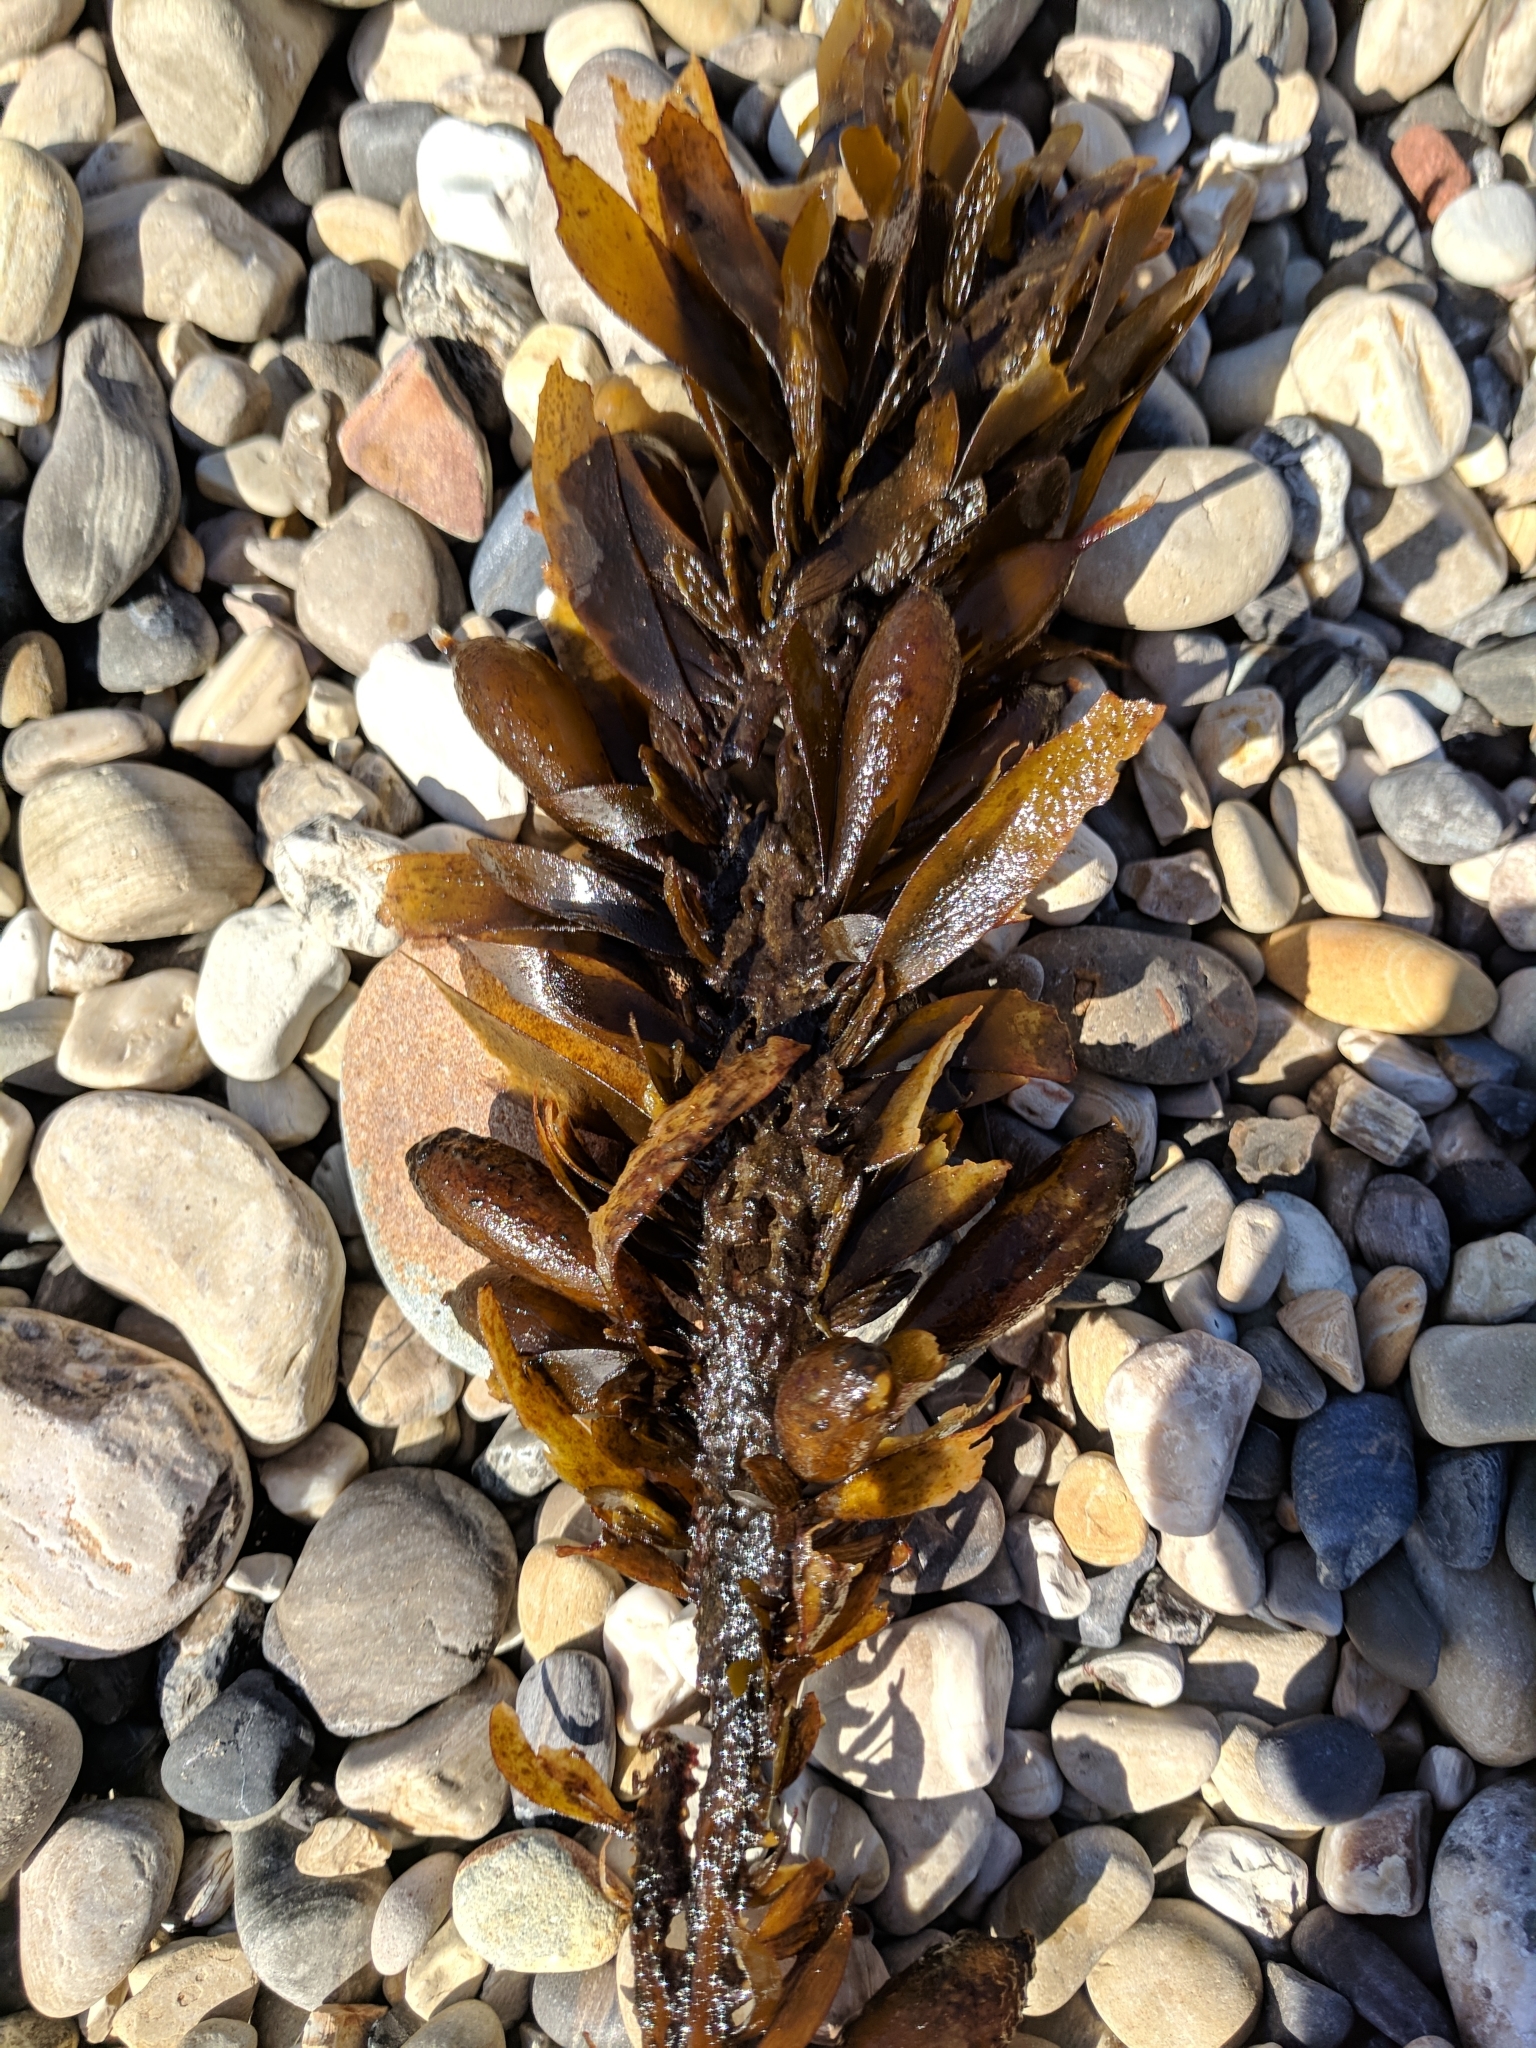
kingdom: Chromista
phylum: Ochrophyta
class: Phaeophyceae
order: Laminariales
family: Lessoniaceae
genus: Egregia
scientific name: Egregia menziesii
